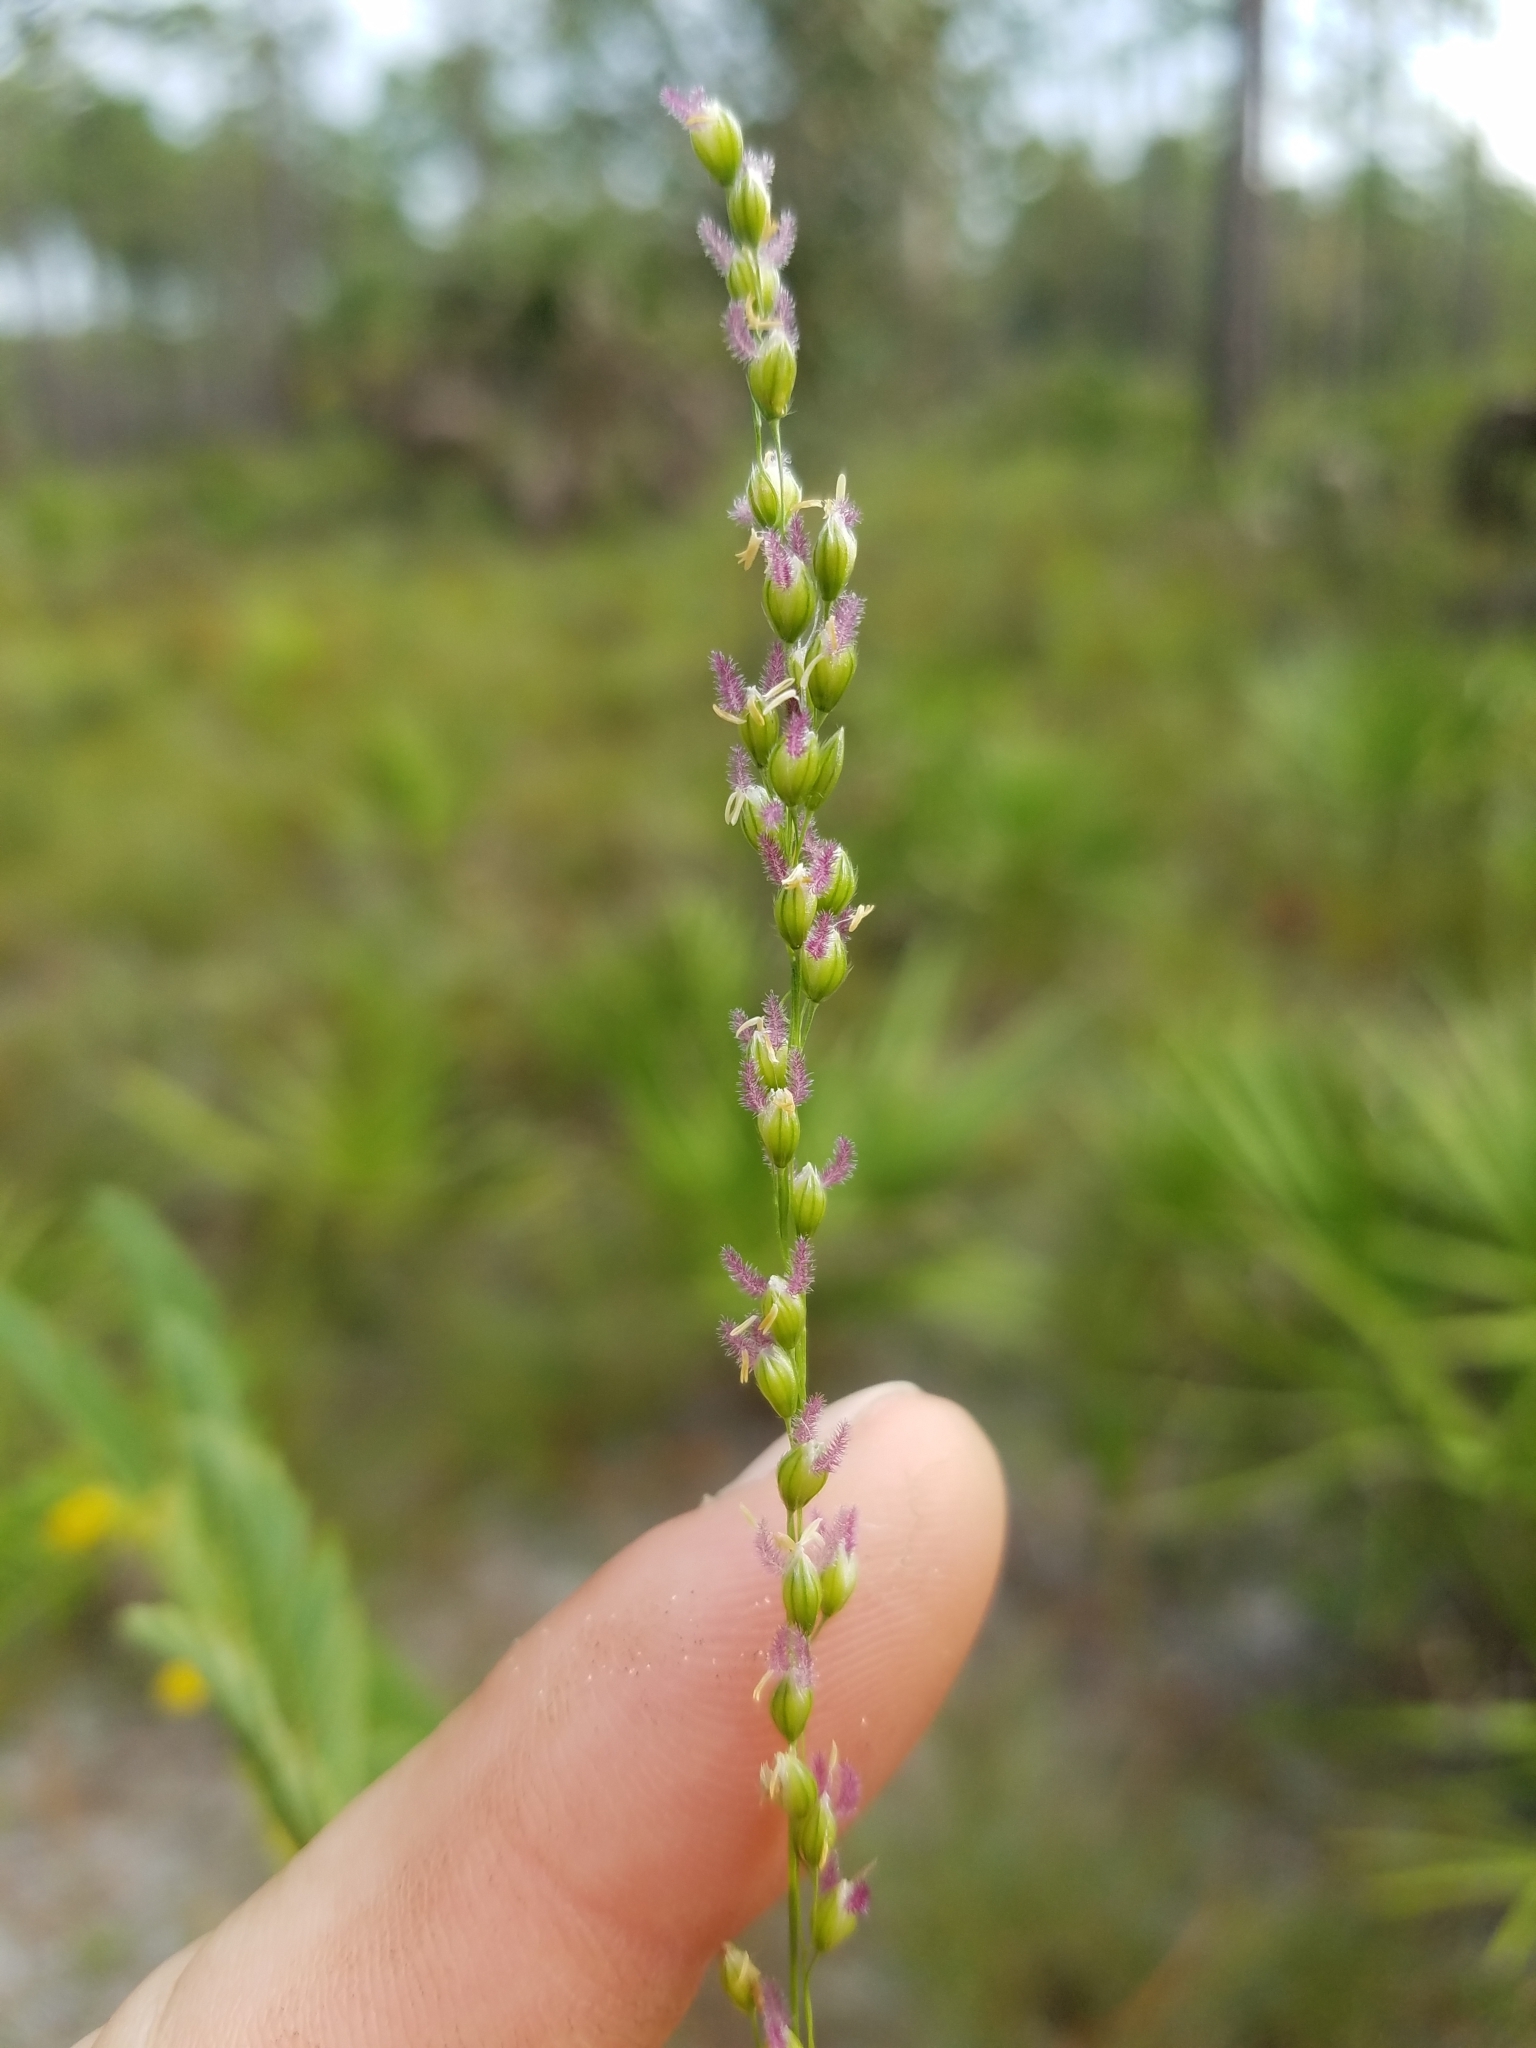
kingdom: Plantae
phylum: Tracheophyta
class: Liliopsida
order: Poales
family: Poaceae
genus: Anthenantia
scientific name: Anthenantia villosa
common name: Green silkyscale
